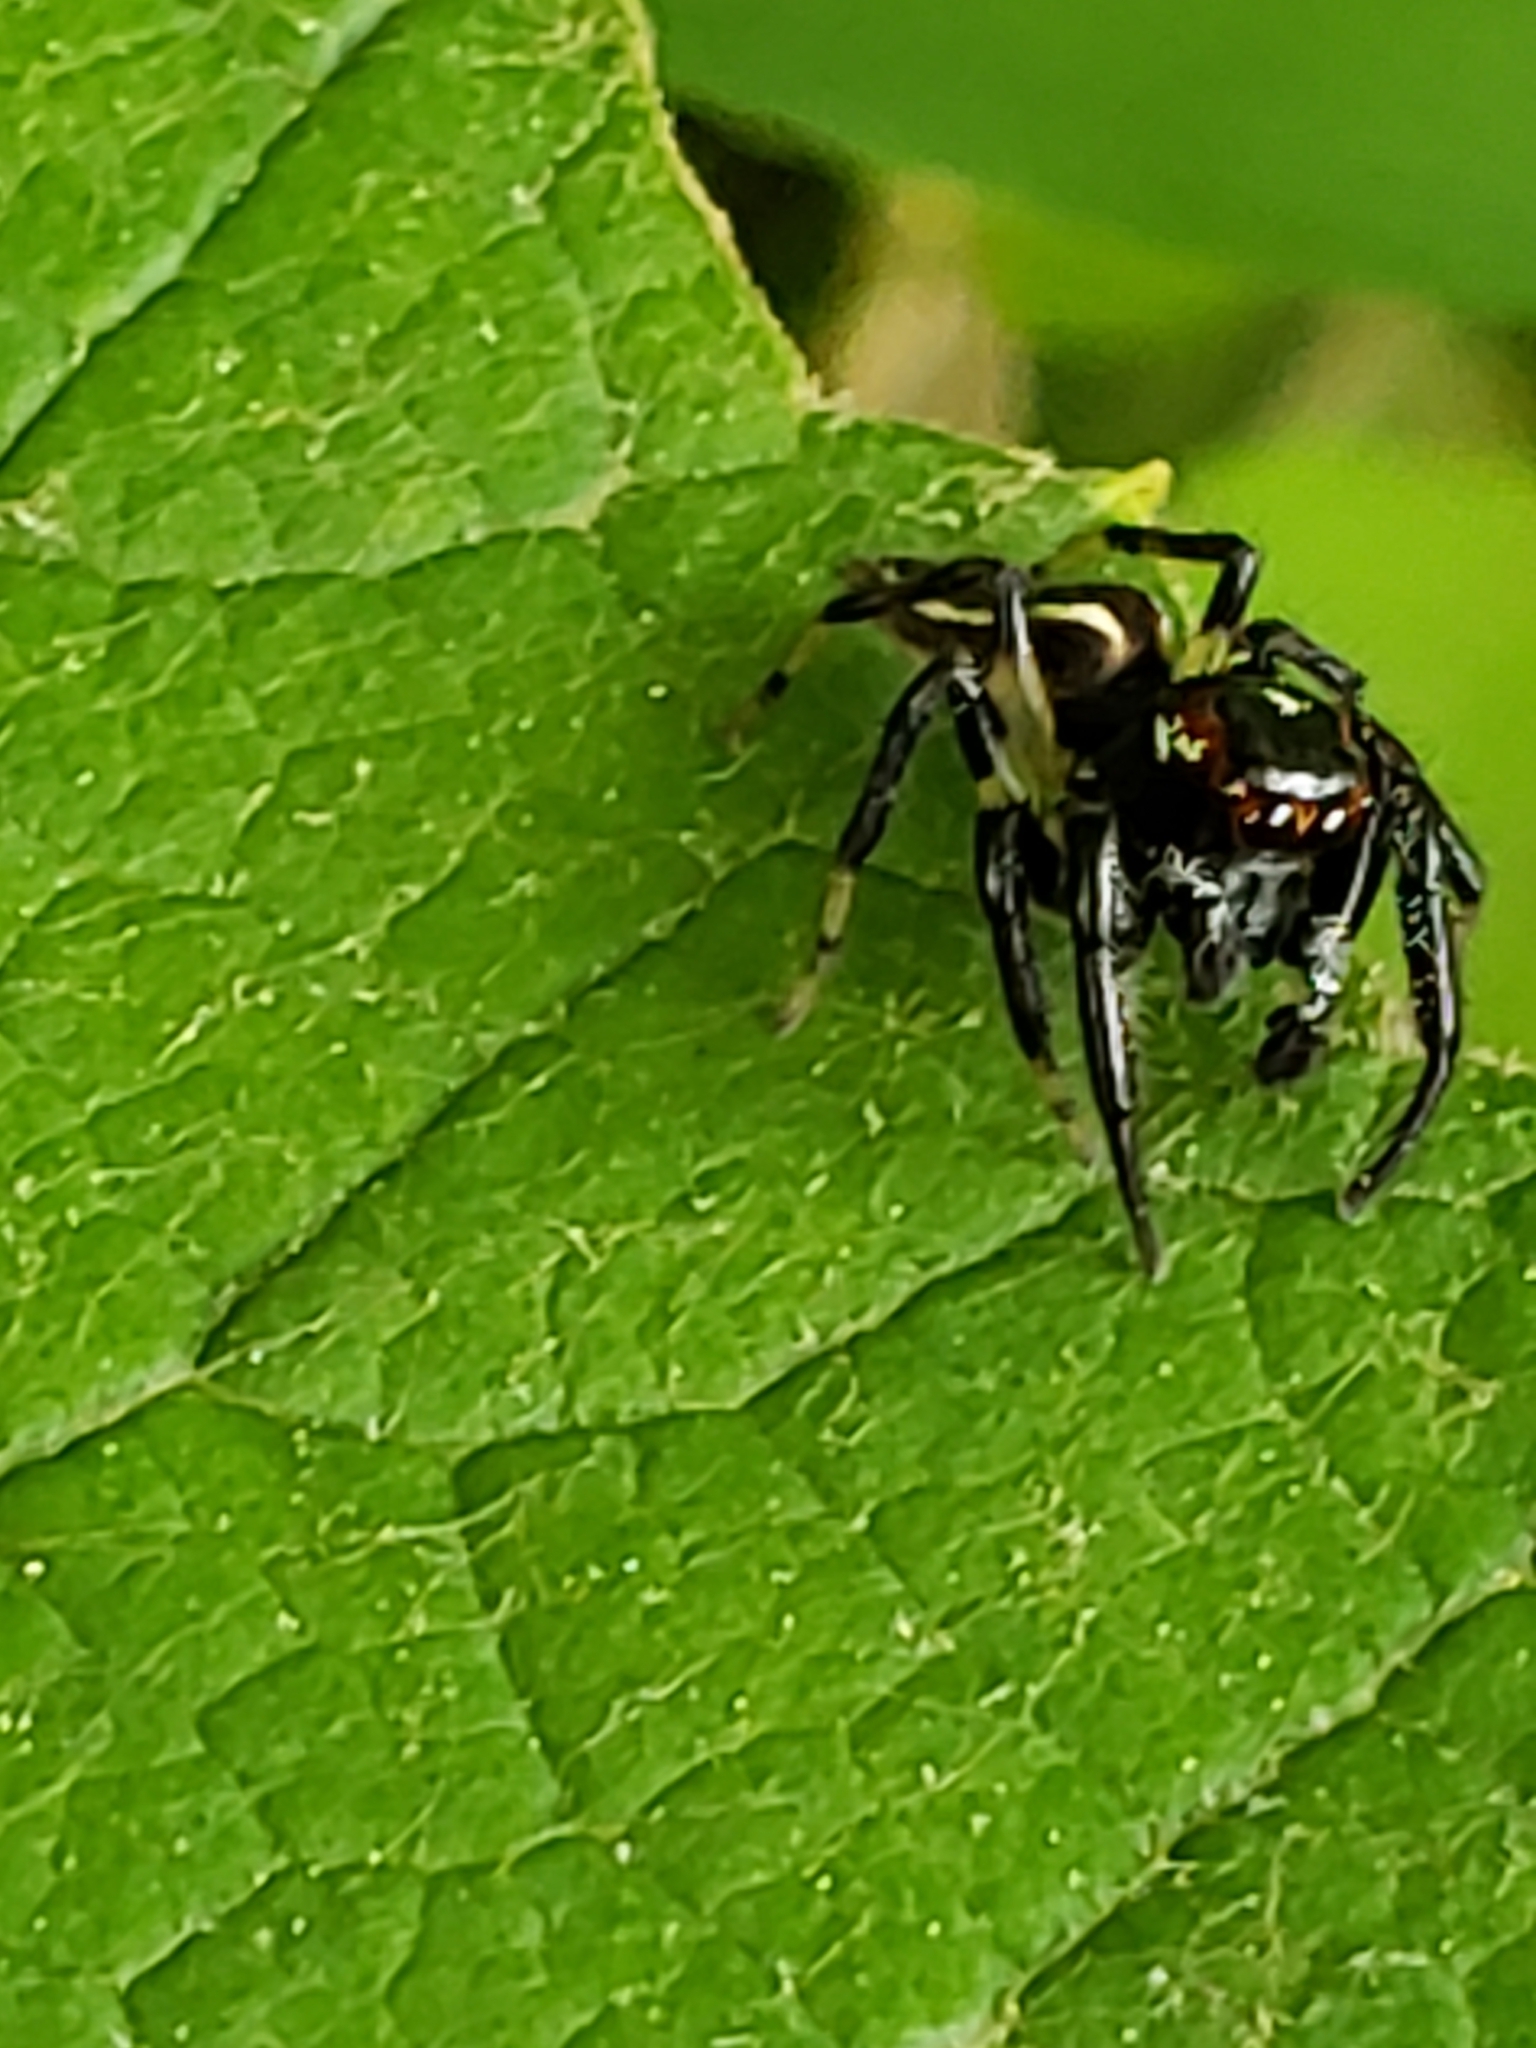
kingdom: Animalia
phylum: Arthropoda
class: Arachnida
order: Araneae
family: Salticidae
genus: Colonus
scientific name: Colonus sylvanus
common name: Jumping spiders
